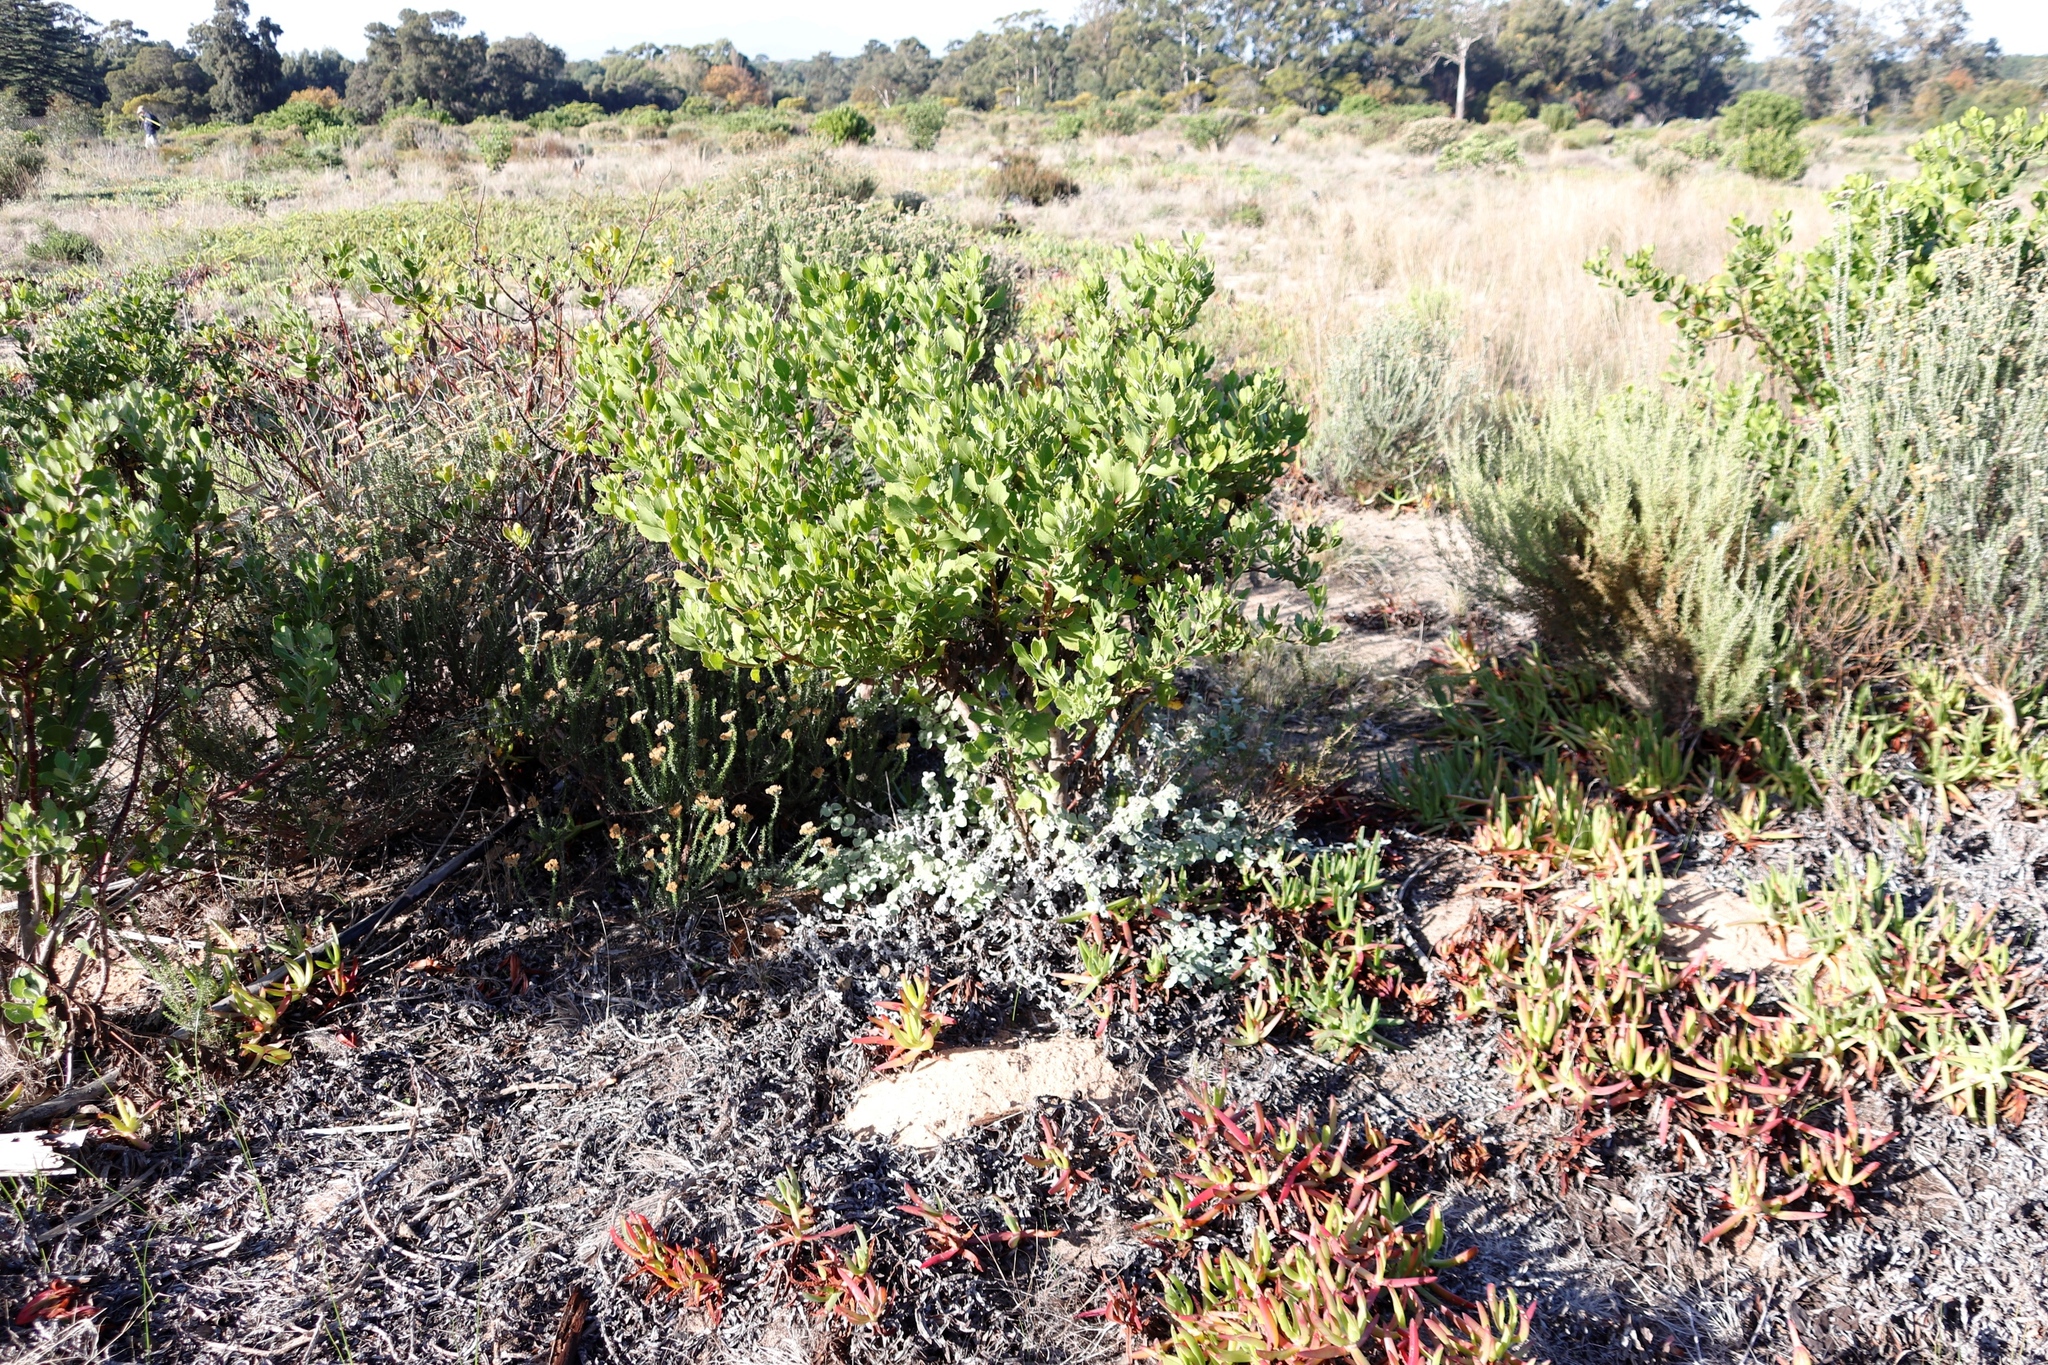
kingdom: Plantae
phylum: Tracheophyta
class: Magnoliopsida
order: Asterales
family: Asteraceae
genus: Osteospermum
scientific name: Osteospermum moniliferum
